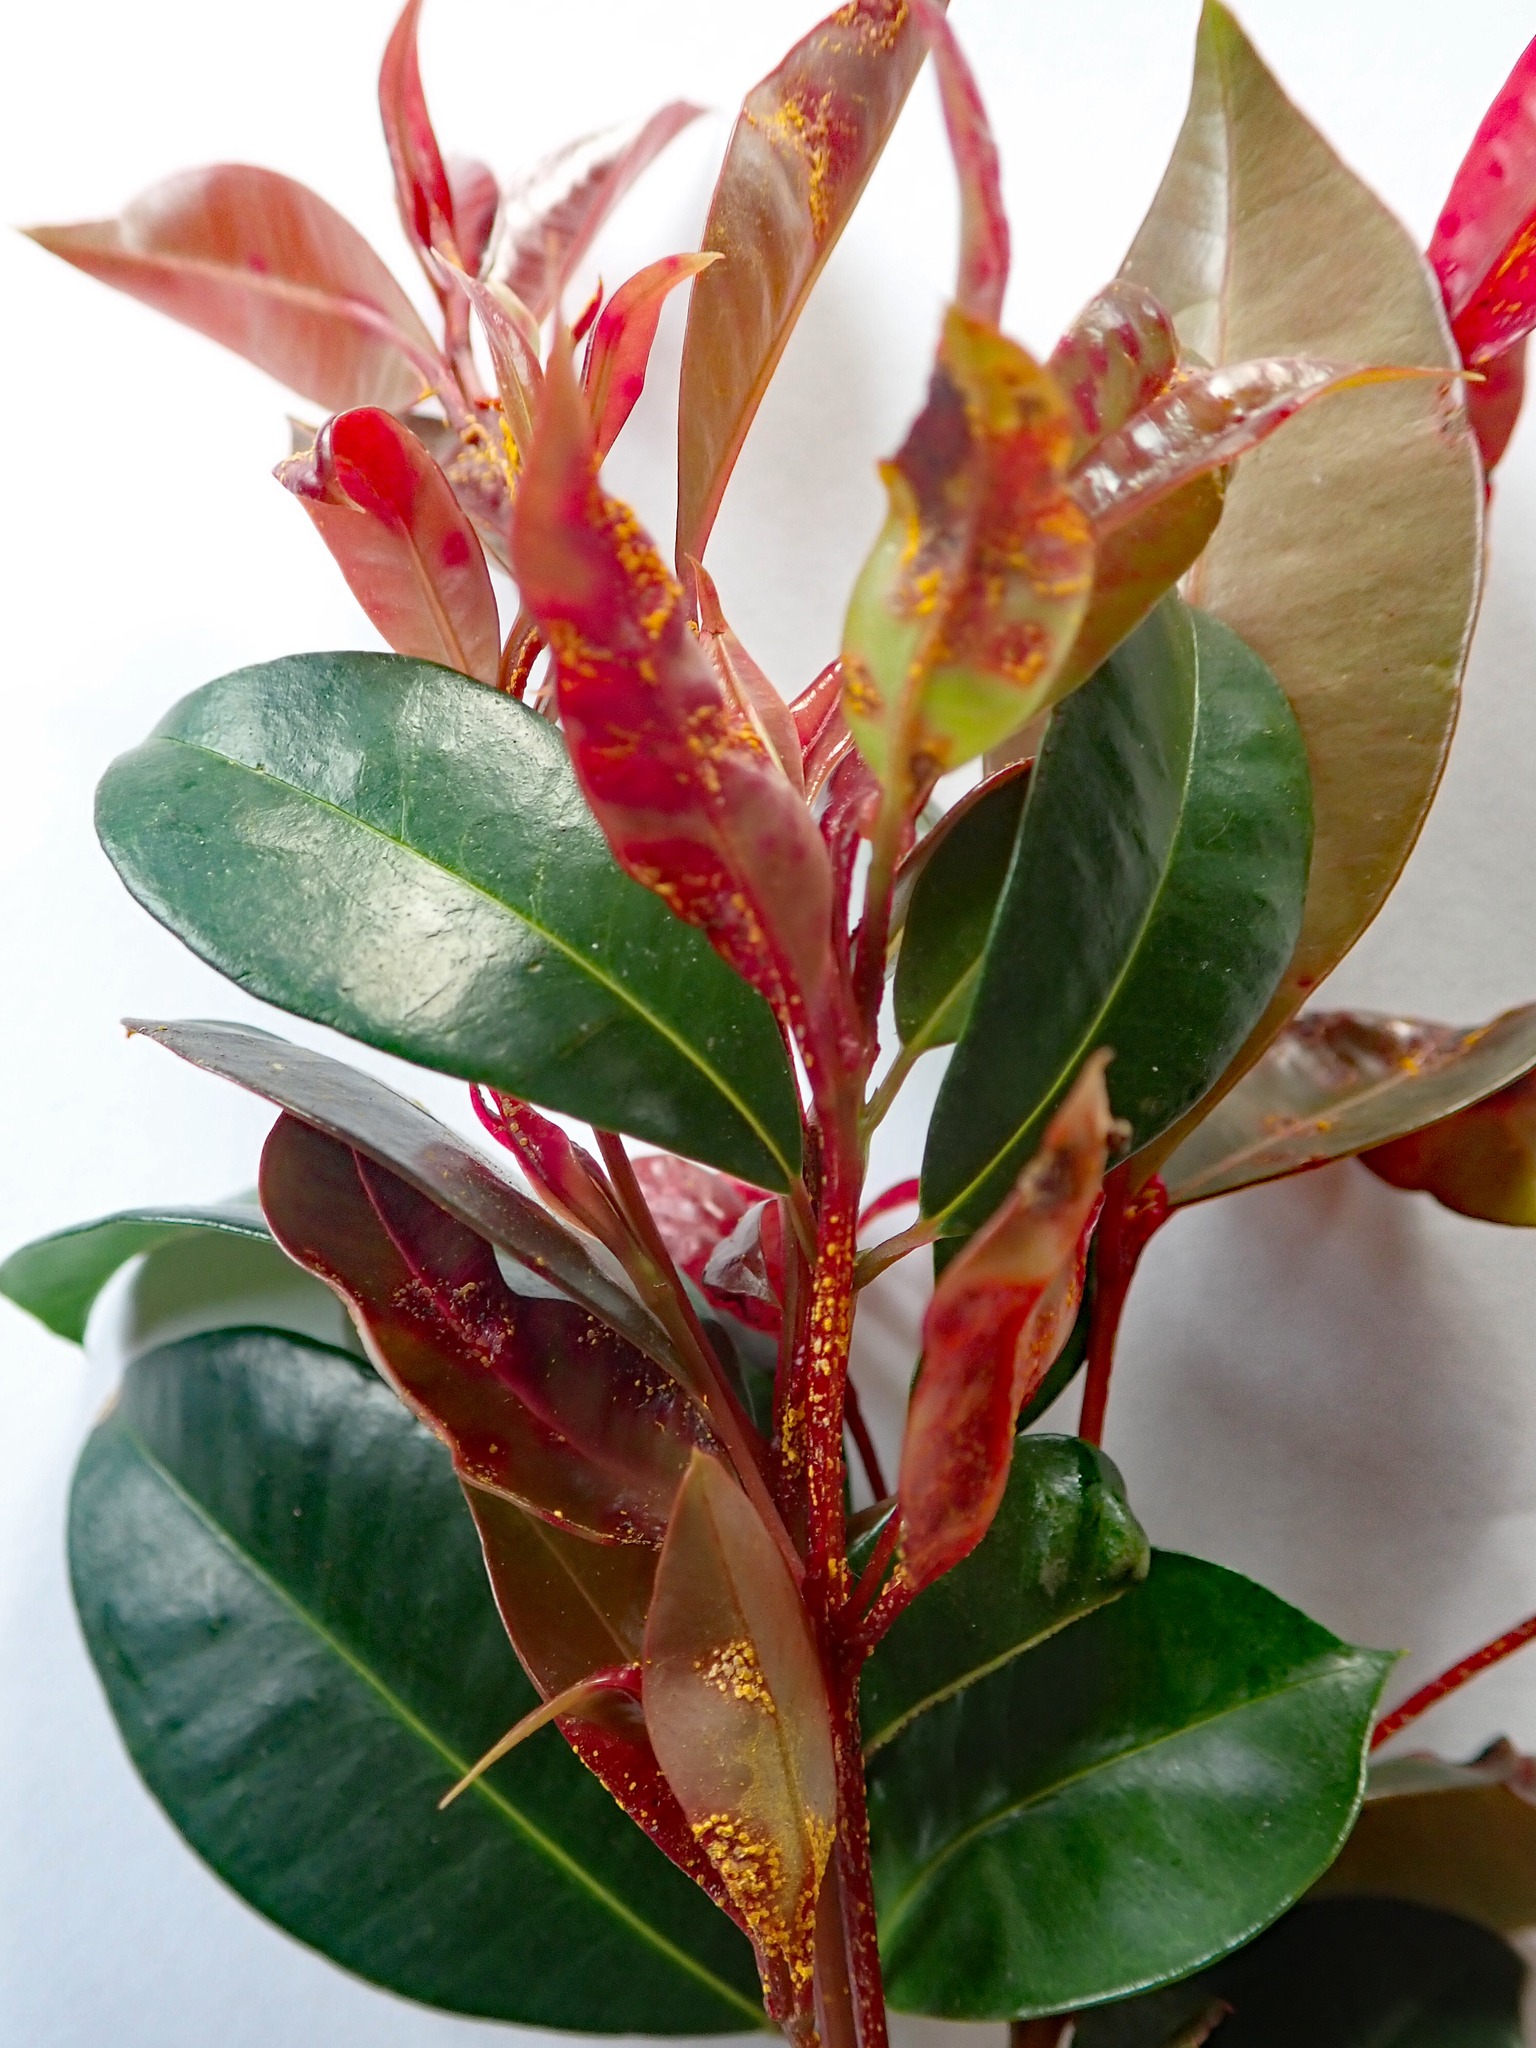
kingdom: Fungi
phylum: Basidiomycota
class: Pucciniomycetes
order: Pucciniales
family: Sphaerophragmiaceae
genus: Austropuccinia
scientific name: Austropuccinia psidii
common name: Myrtle rust
